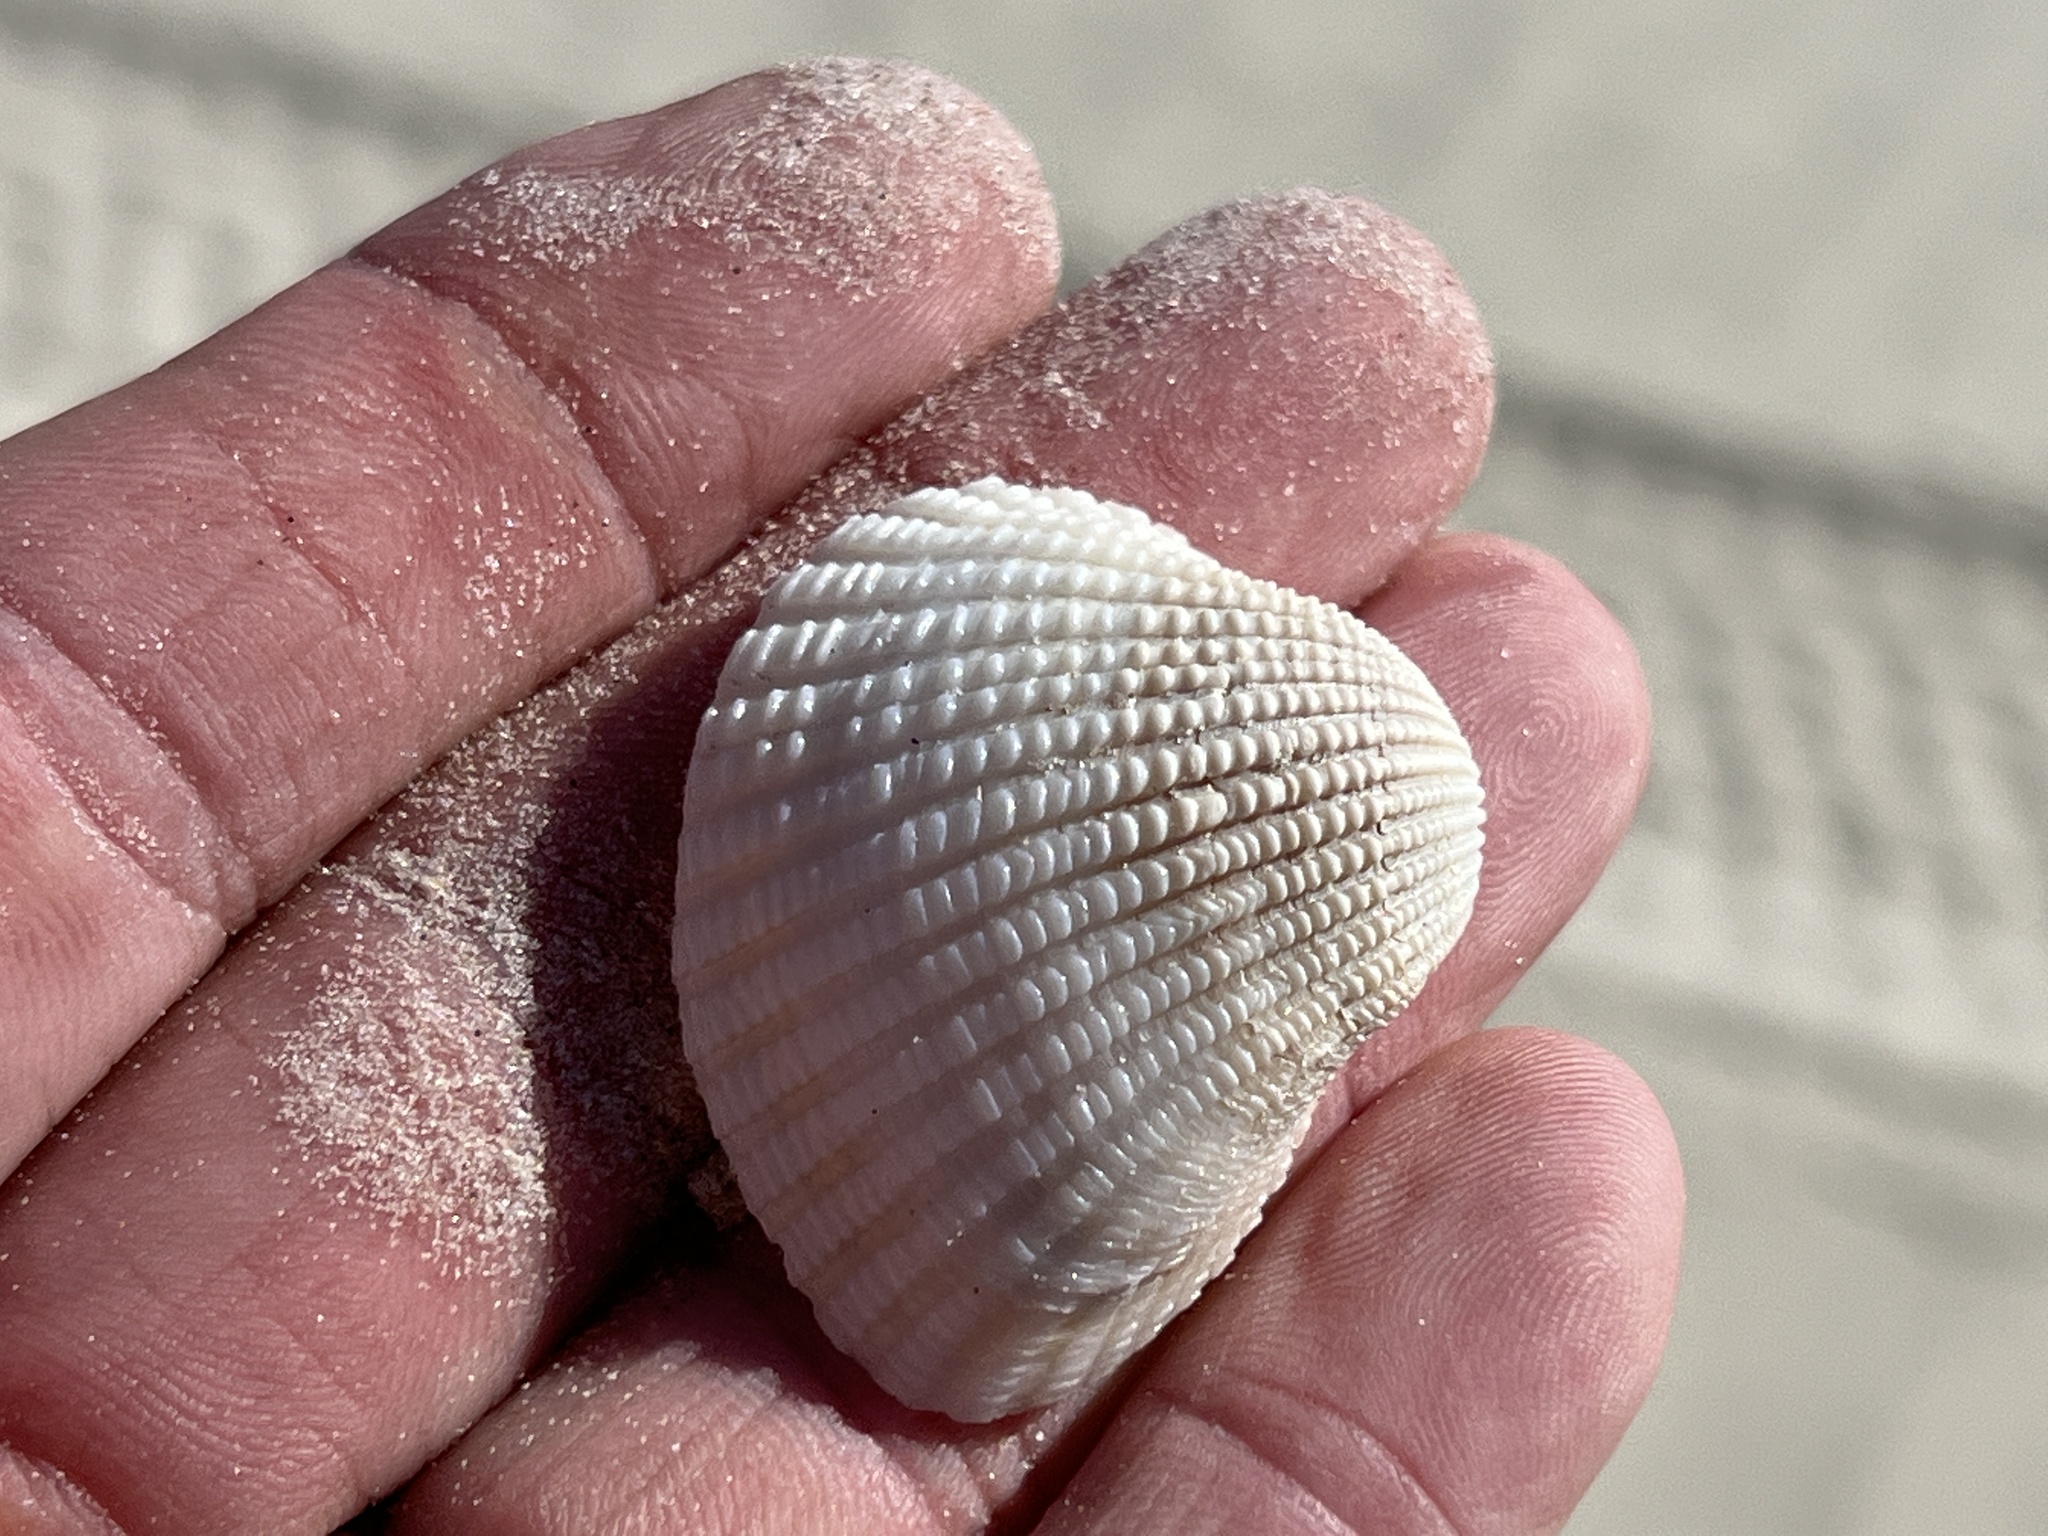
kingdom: Animalia
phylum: Mollusca
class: Bivalvia
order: Arcida
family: Arcidae
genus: Anadara
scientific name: Anadara brasiliana
